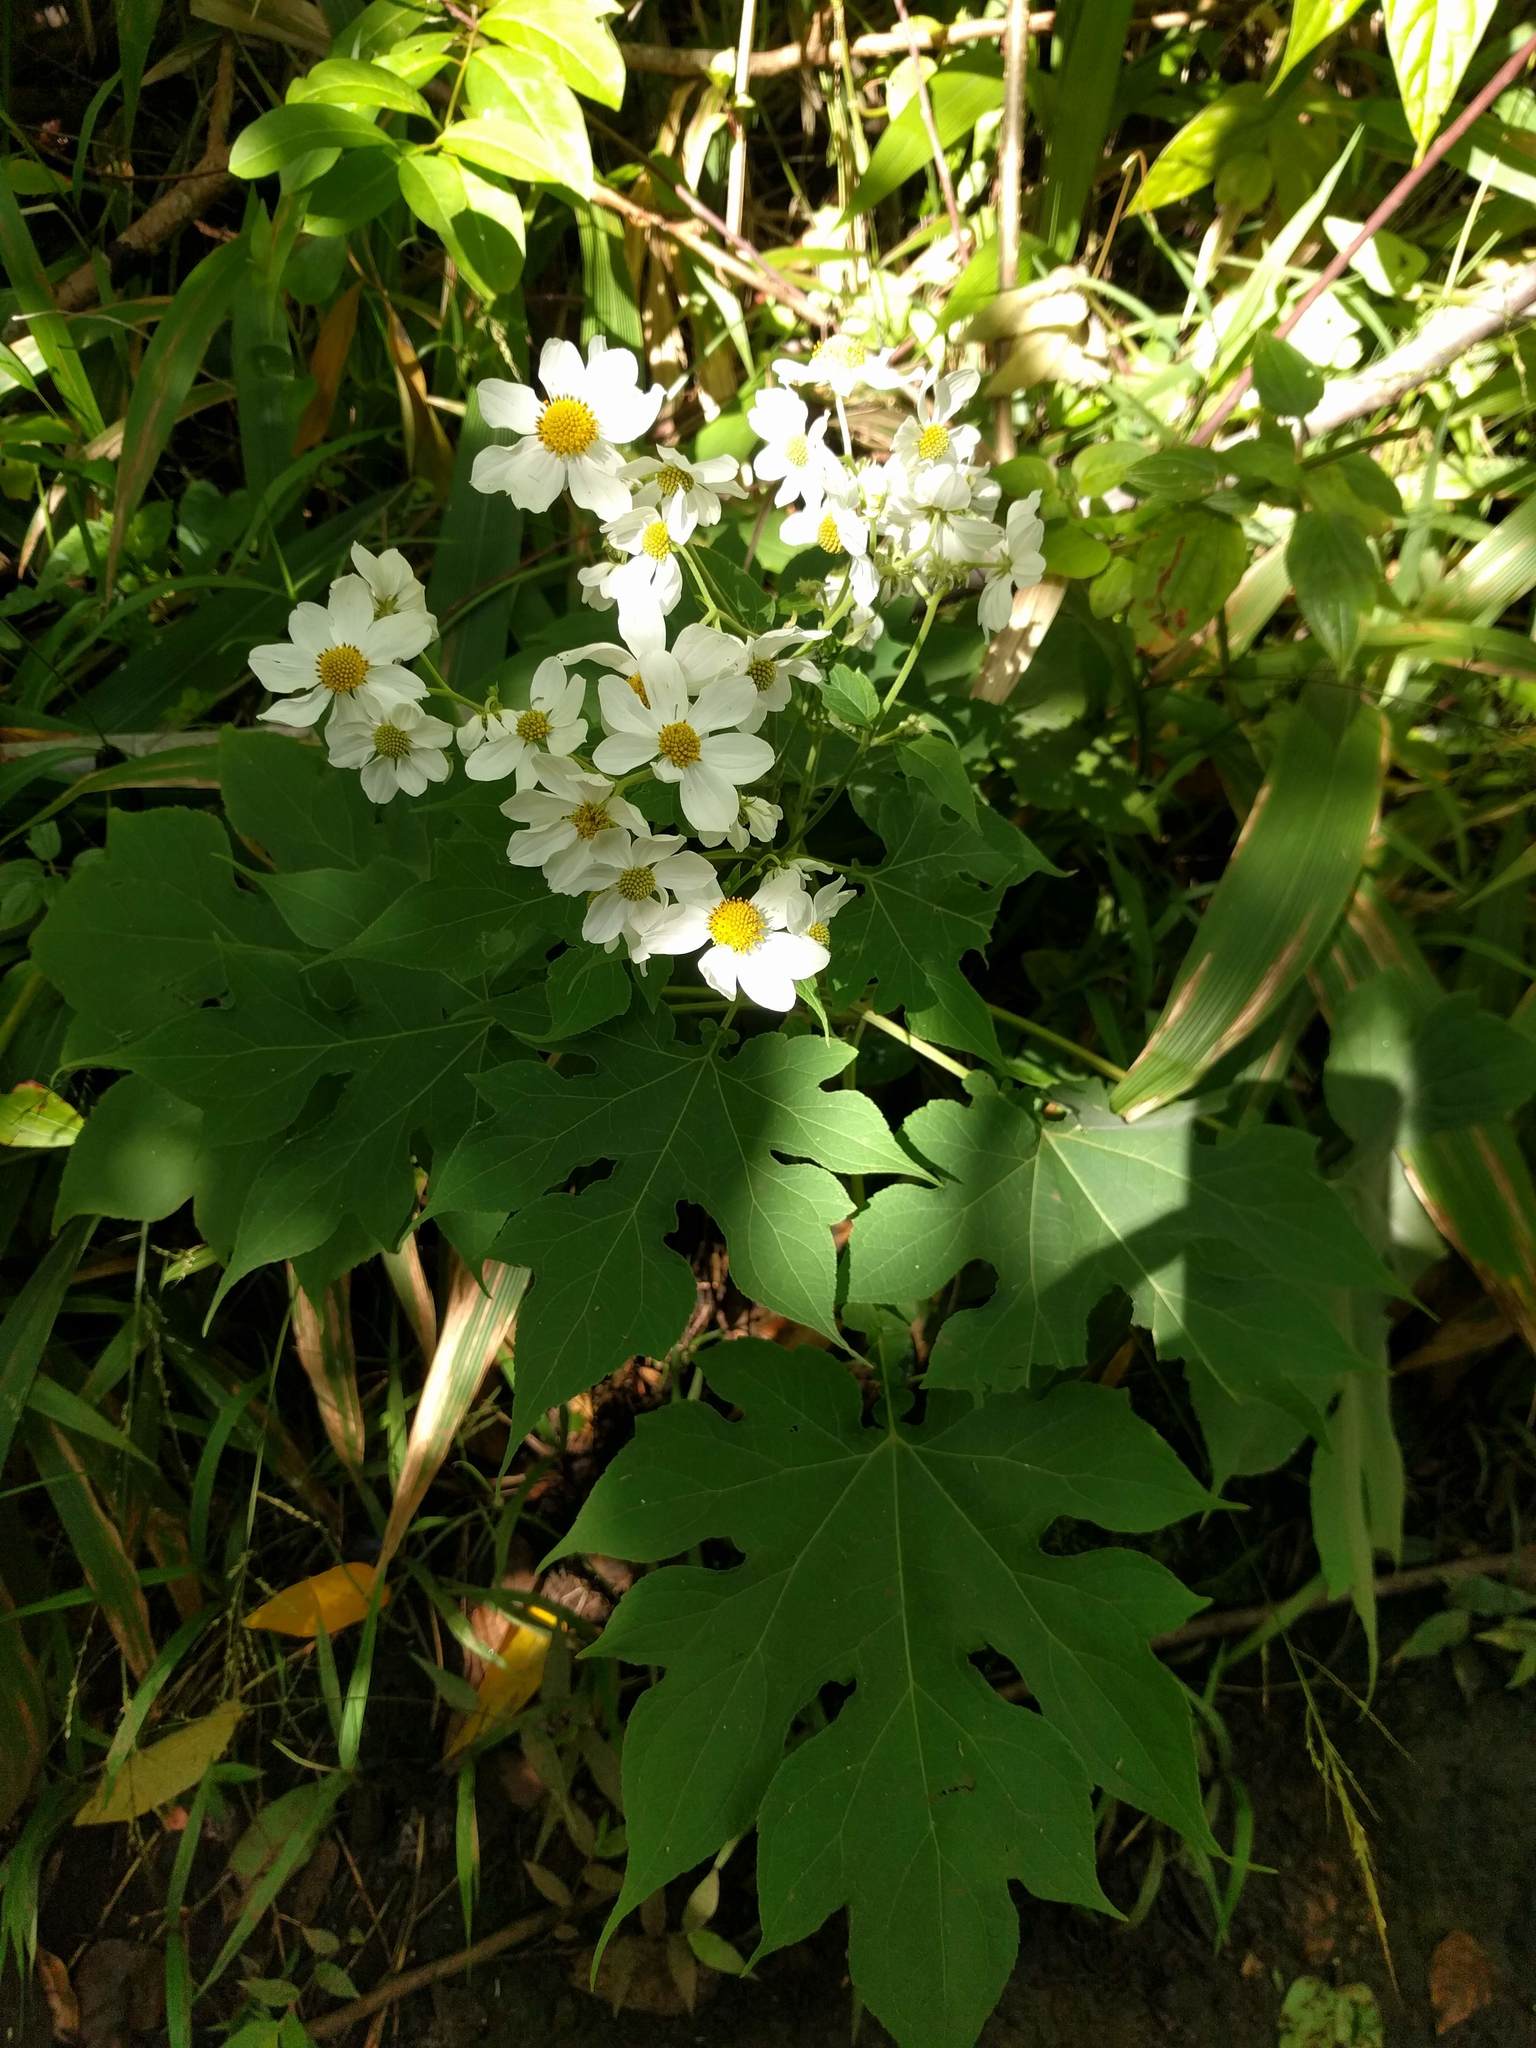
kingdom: Plantae
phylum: Tracheophyta
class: Magnoliopsida
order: Asterales
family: Asteraceae
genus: Montanoa
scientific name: Montanoa hibiscifolia
